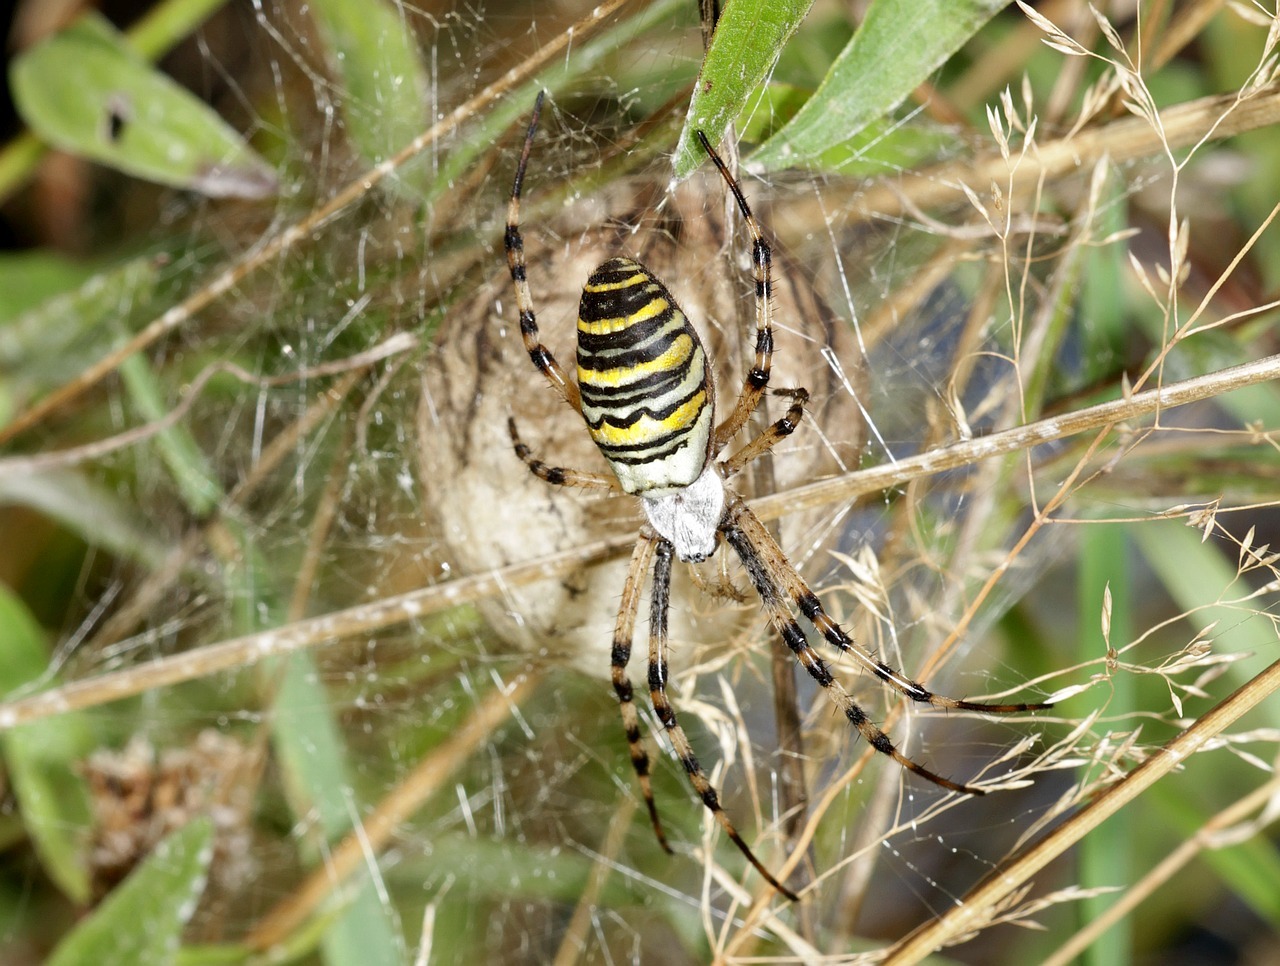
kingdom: Animalia
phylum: Arthropoda
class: Arachnida
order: Araneae
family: Araneidae
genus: Argiope
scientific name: Argiope bruennichi
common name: Wasp spider
